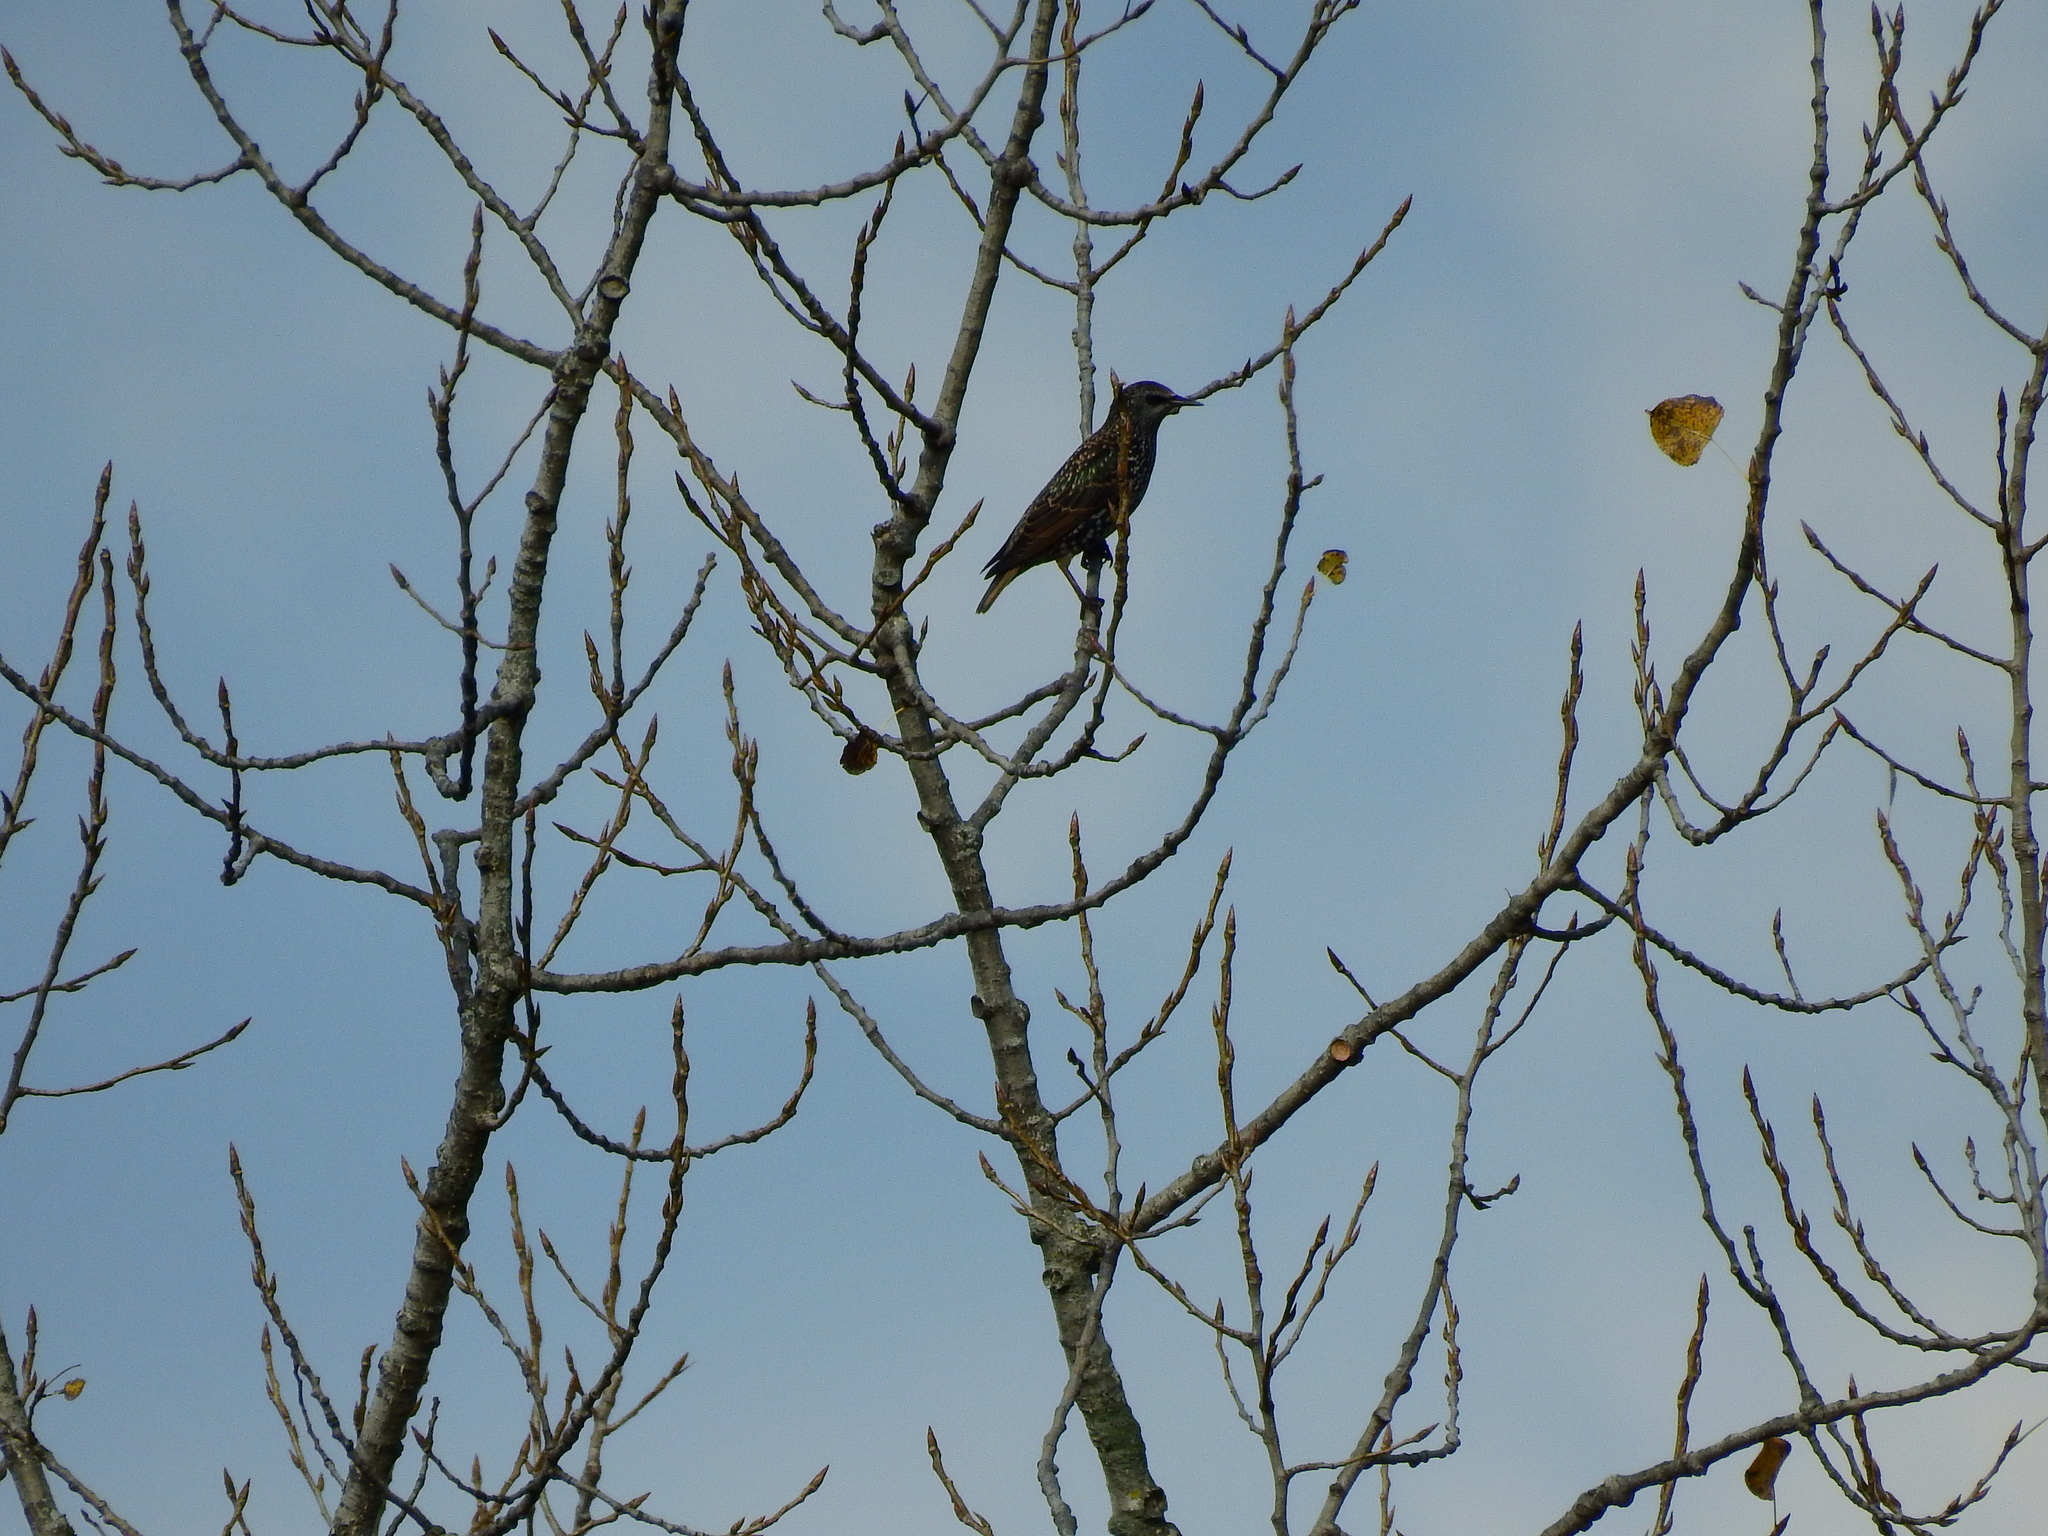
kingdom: Animalia
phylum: Chordata
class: Aves
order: Passeriformes
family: Sturnidae
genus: Sturnus
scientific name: Sturnus vulgaris
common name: Common starling
